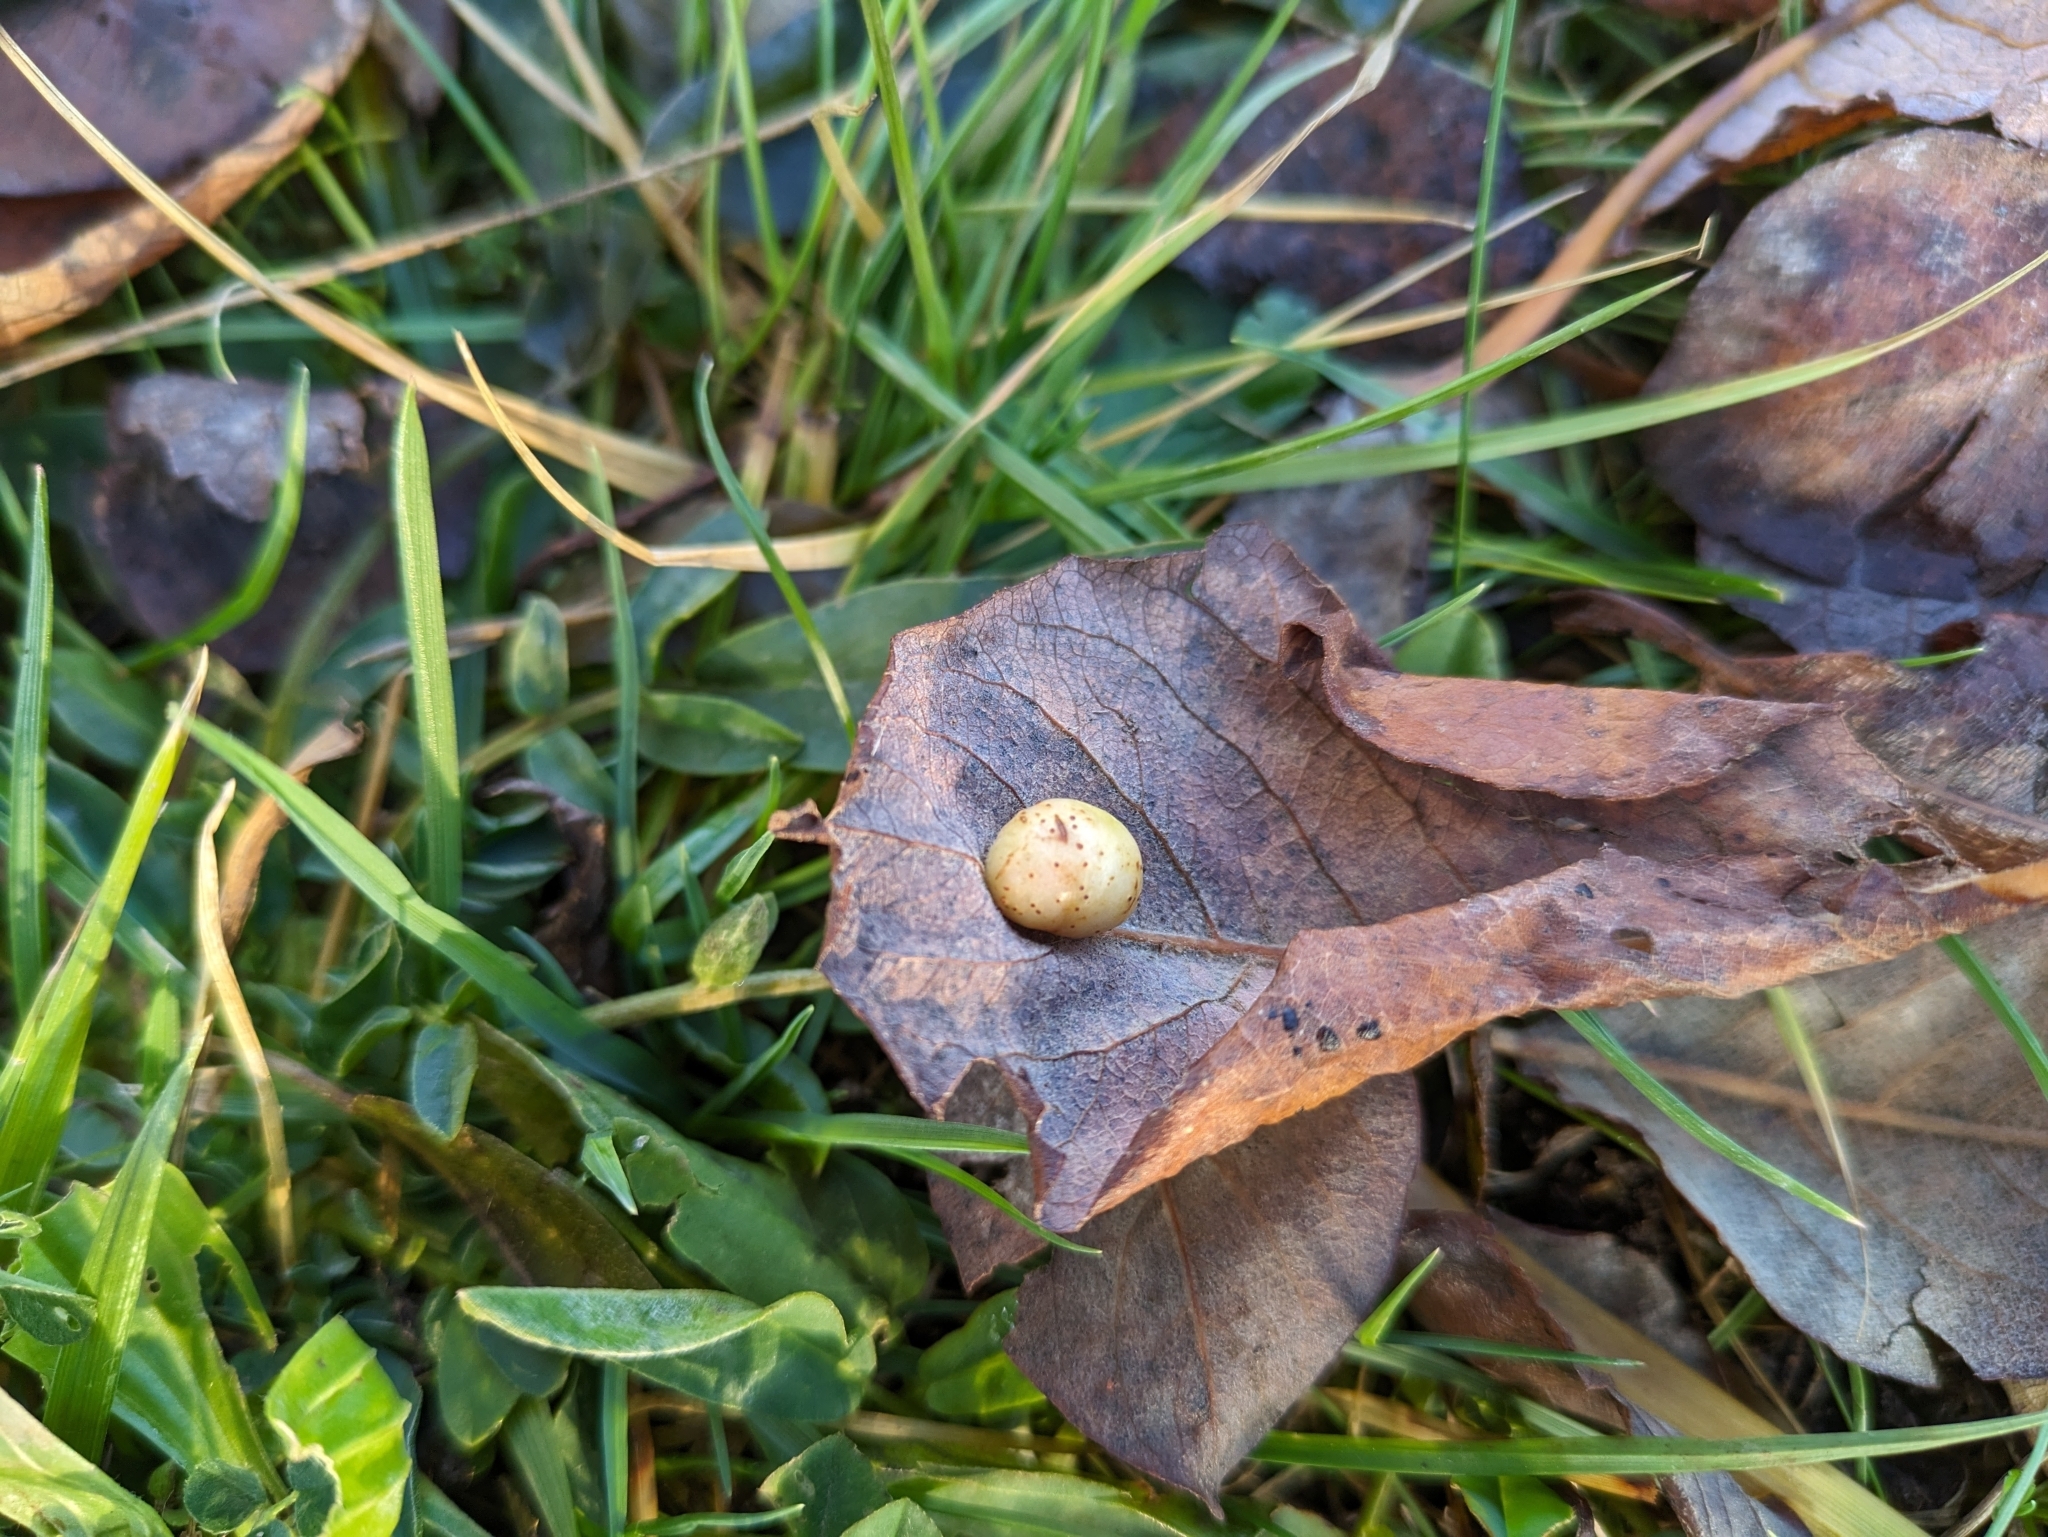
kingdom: Animalia
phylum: Arthropoda
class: Insecta
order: Hymenoptera
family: Tenthredinidae
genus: Pontania
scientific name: Pontania pedunculi
